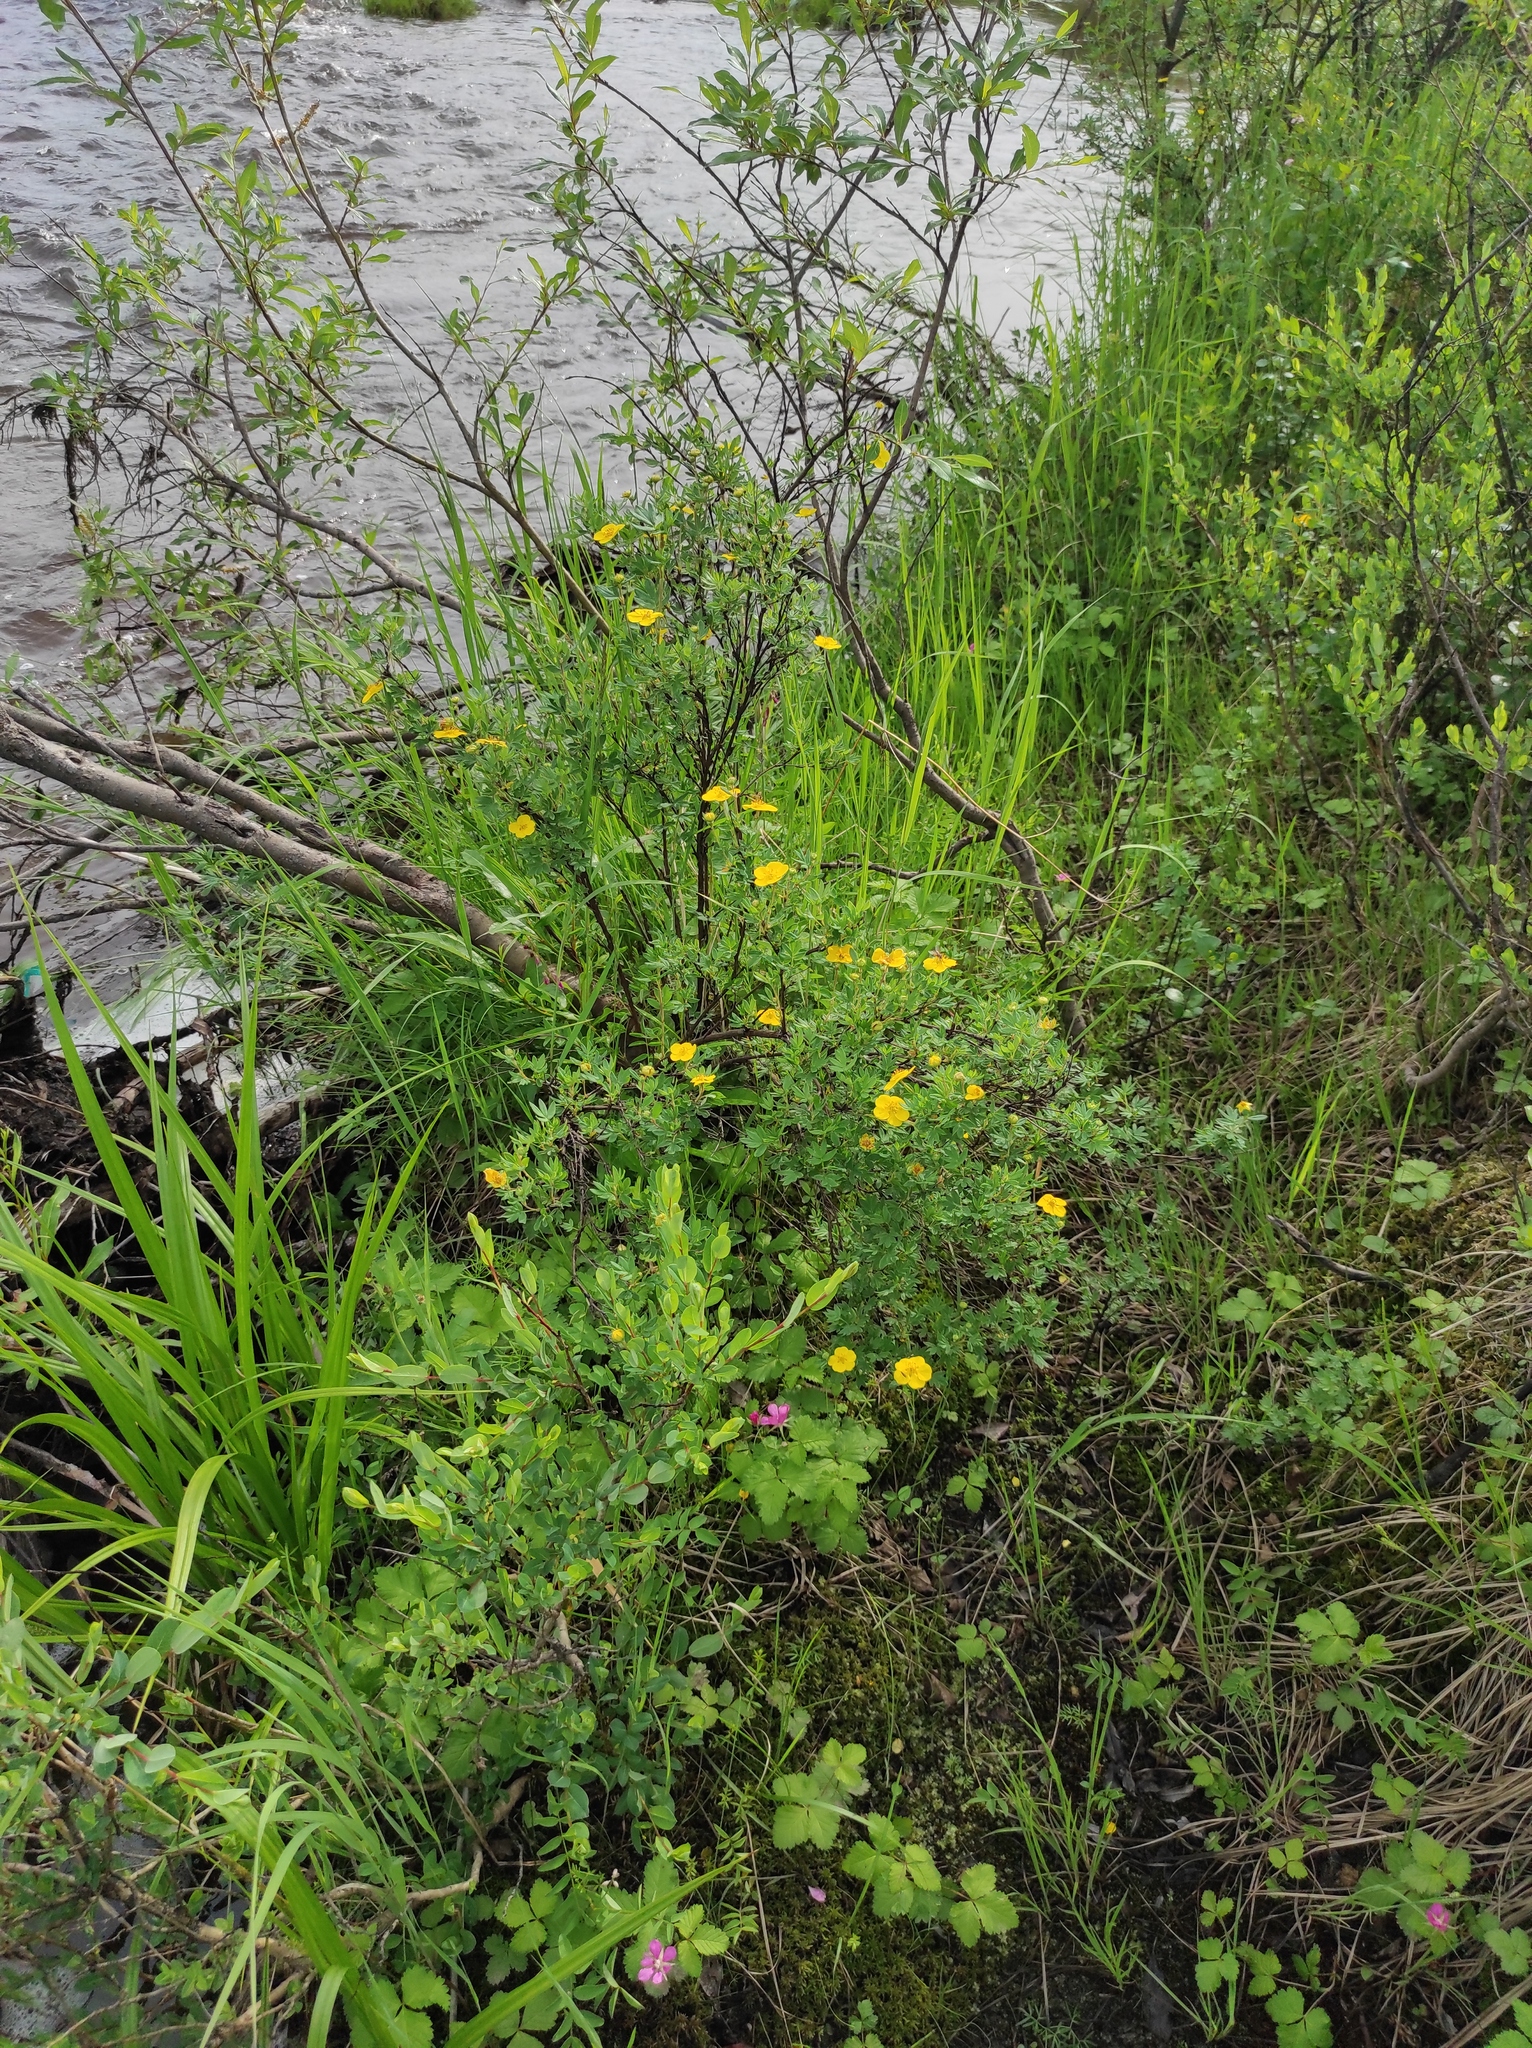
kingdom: Plantae
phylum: Tracheophyta
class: Magnoliopsida
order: Rosales
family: Rosaceae
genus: Dasiphora
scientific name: Dasiphora fruticosa
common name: Shrubby cinquefoil
